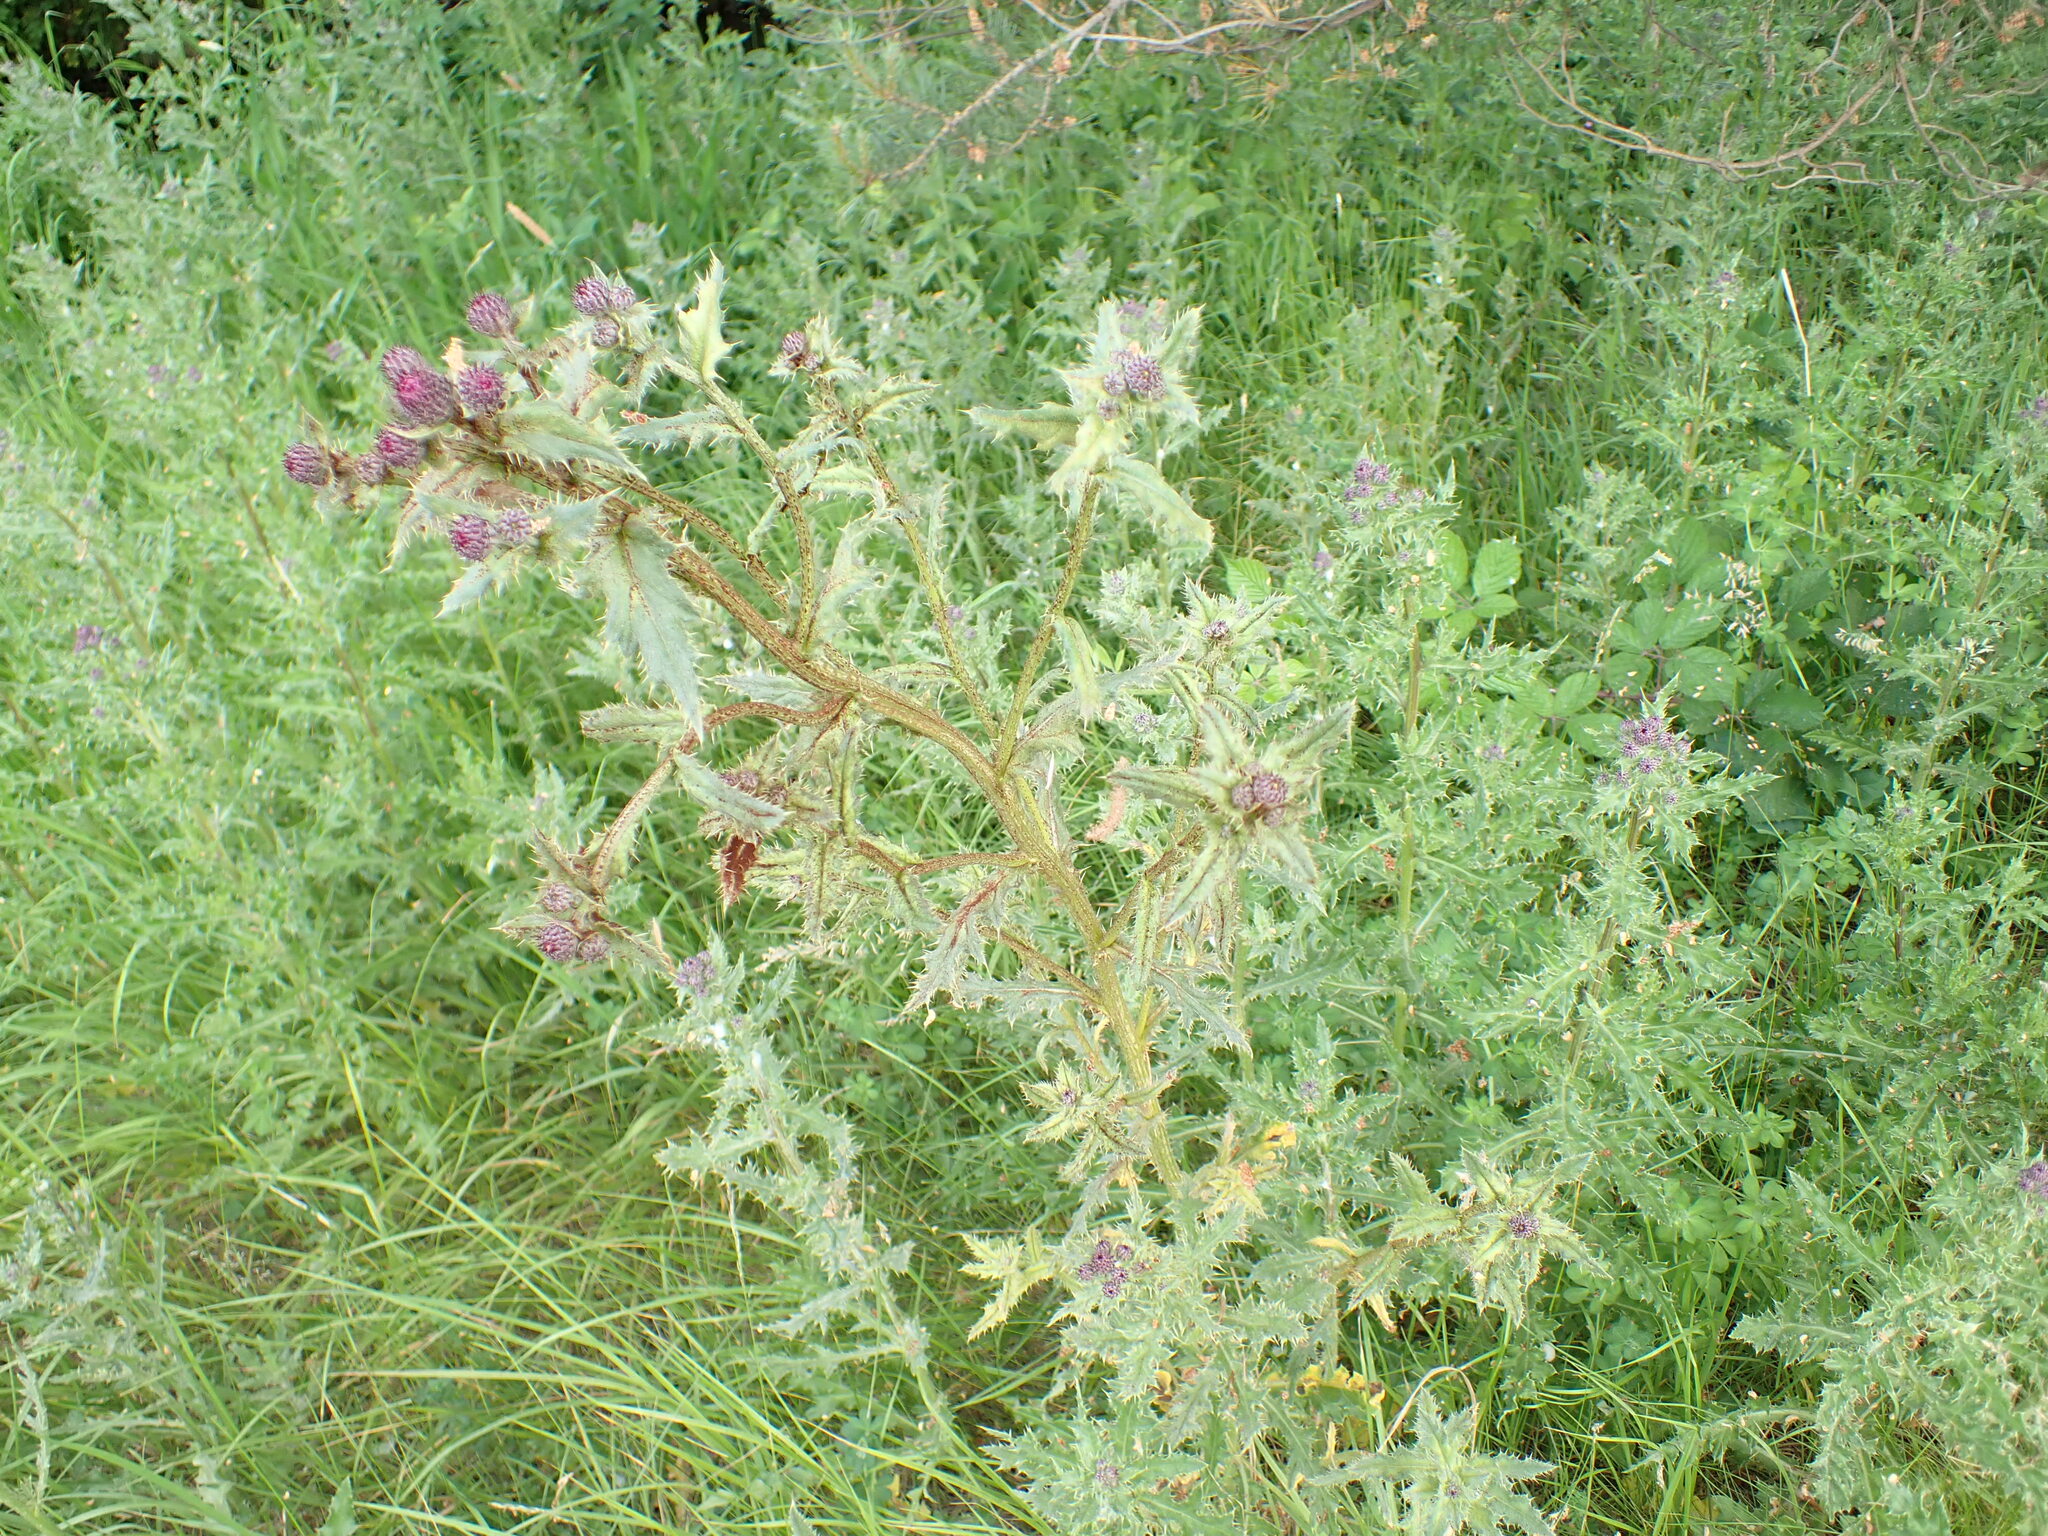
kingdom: Fungi
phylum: Basidiomycota
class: Pucciniomycetes
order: Pucciniales
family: Pucciniaceae
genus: Puccinia
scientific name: Puccinia suaveolens
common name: Thistle rust
